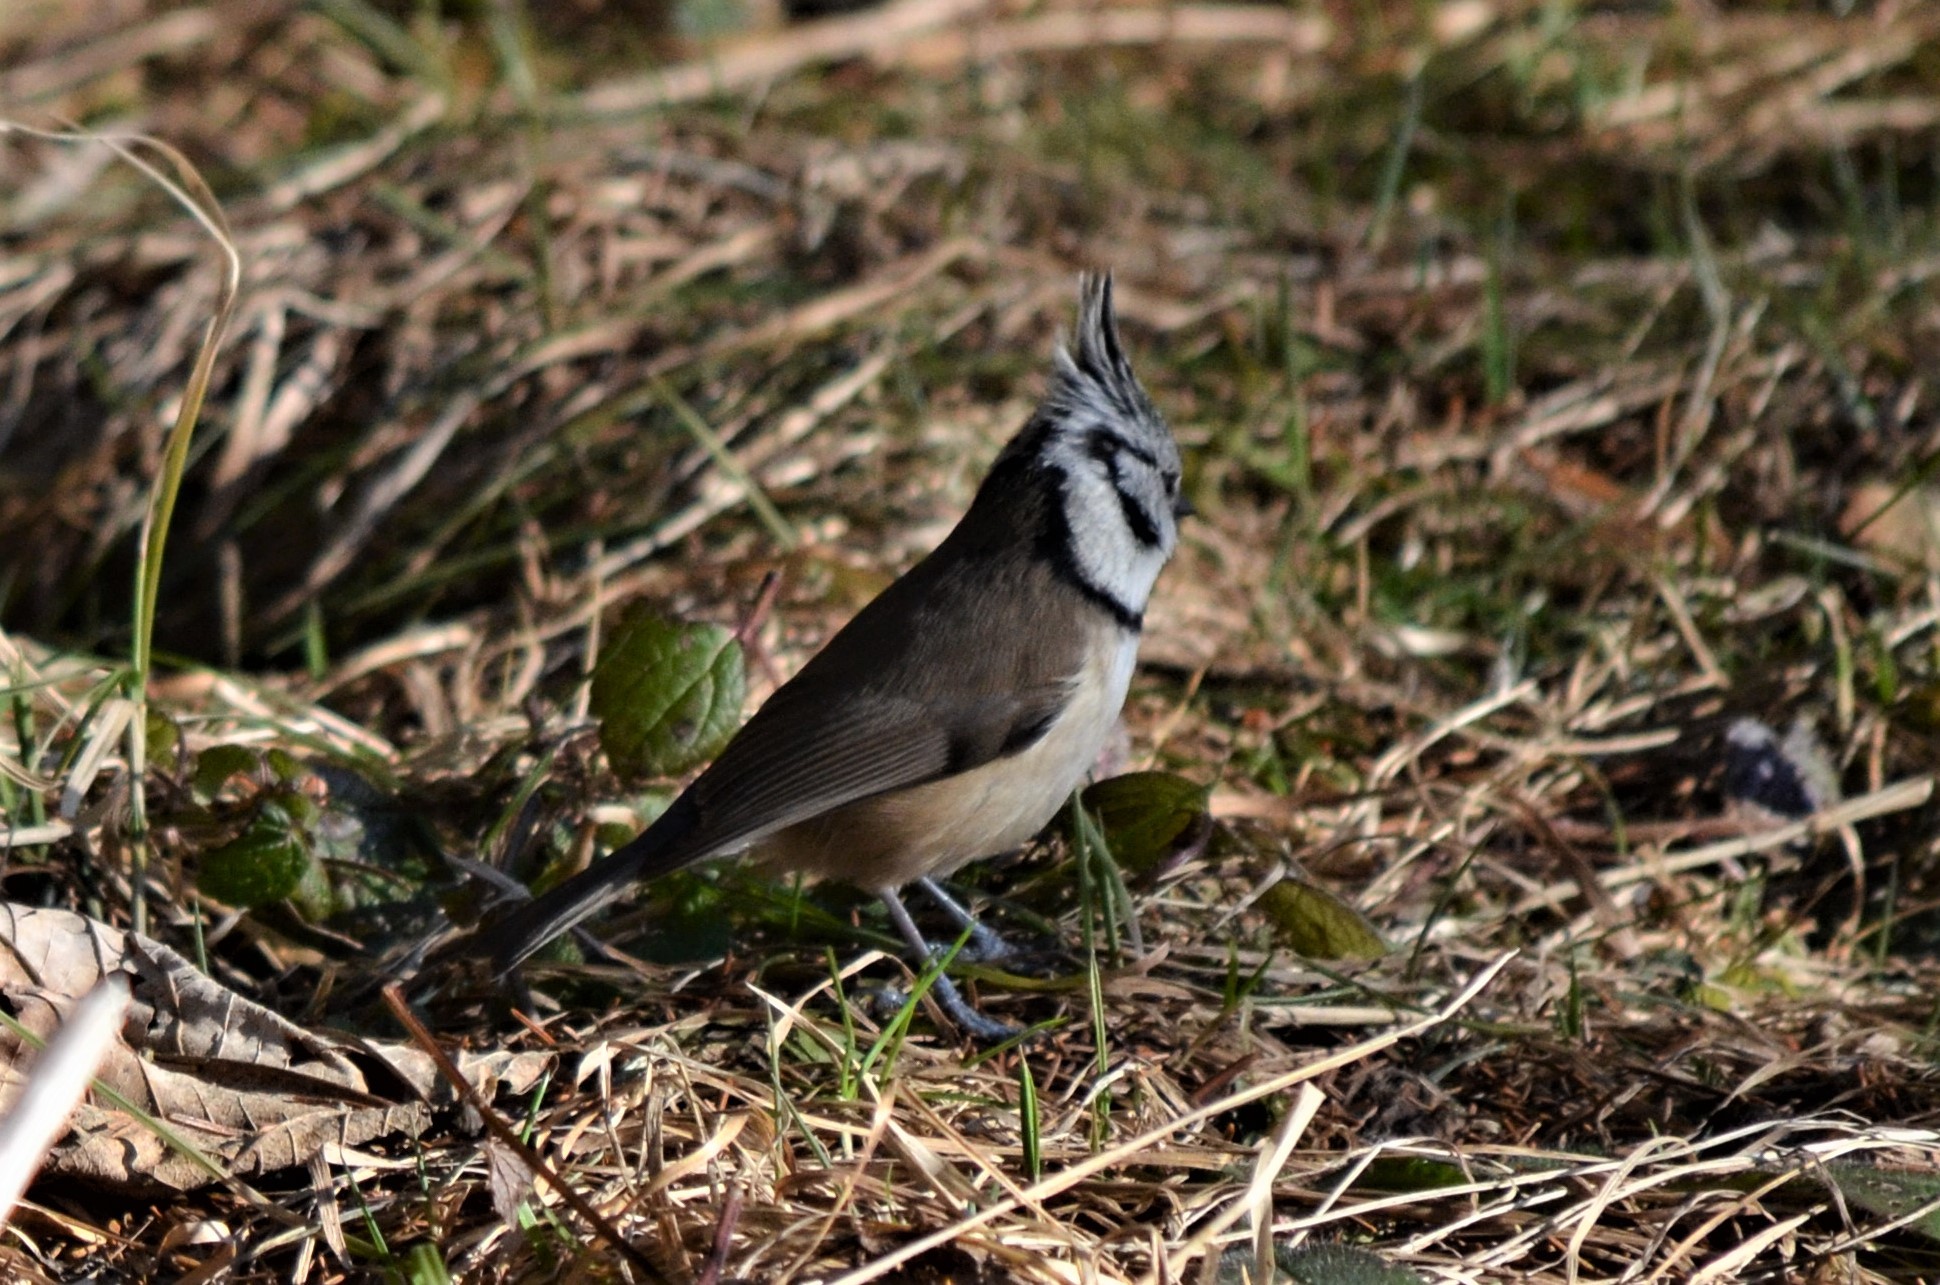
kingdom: Animalia
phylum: Chordata
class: Aves
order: Passeriformes
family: Paridae
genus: Lophophanes
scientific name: Lophophanes cristatus
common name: European crested tit
